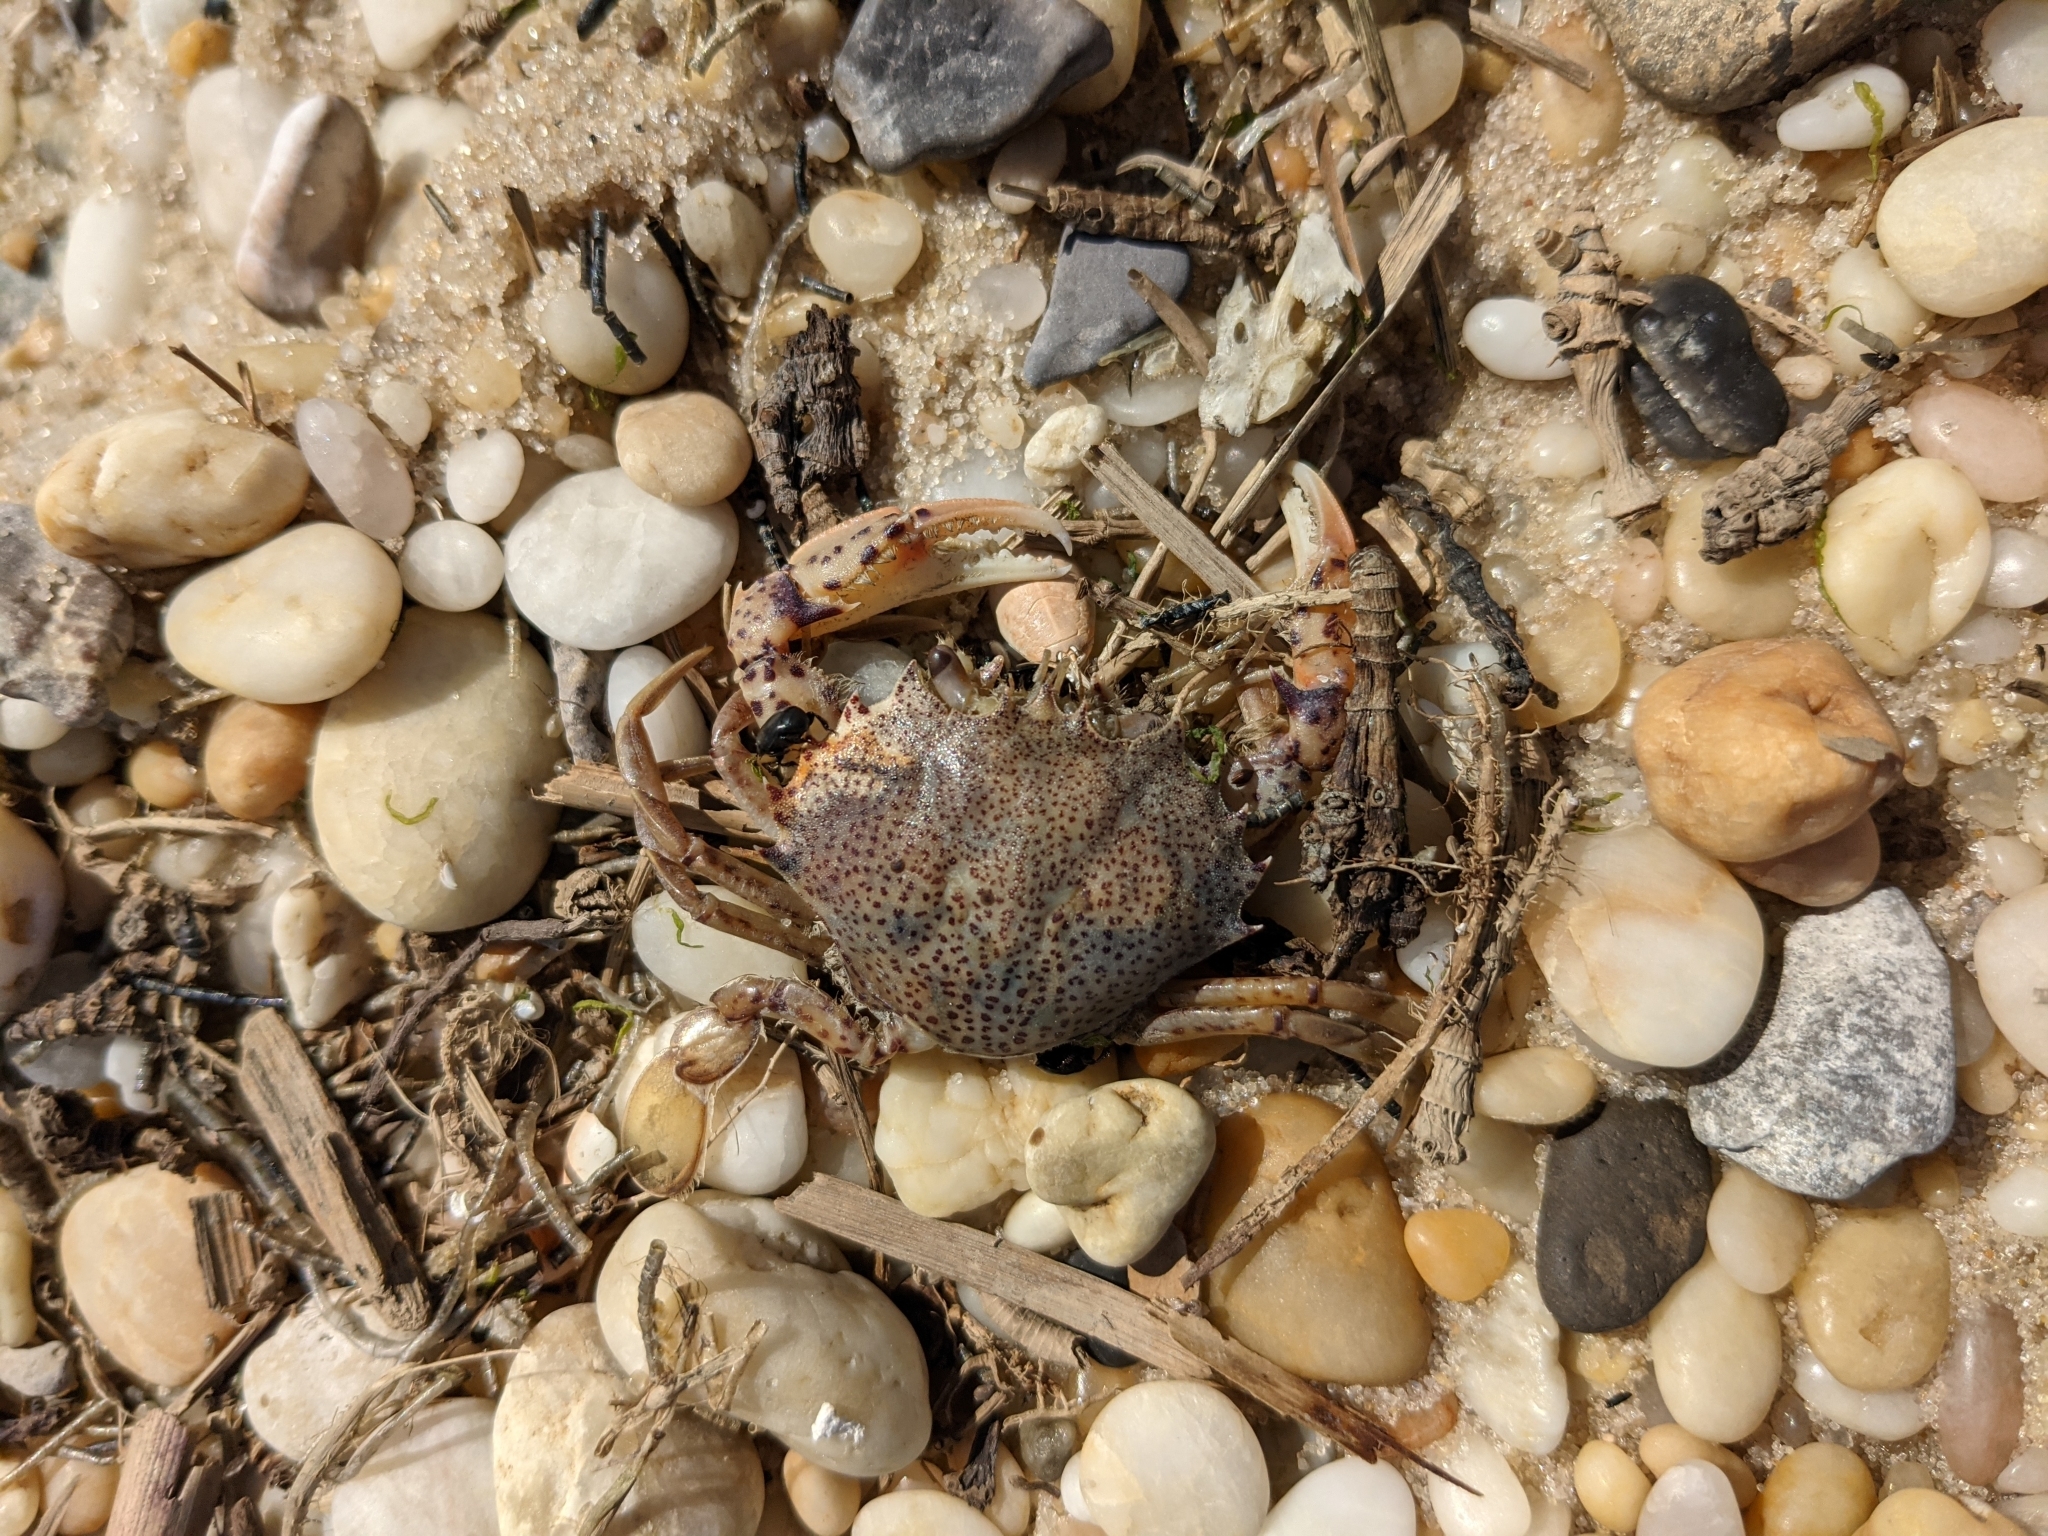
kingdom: Animalia
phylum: Arthropoda
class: Malacostraca
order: Decapoda
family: Ovalipidae
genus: Ovalipes
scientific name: Ovalipes ocellatus
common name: Lady crab
